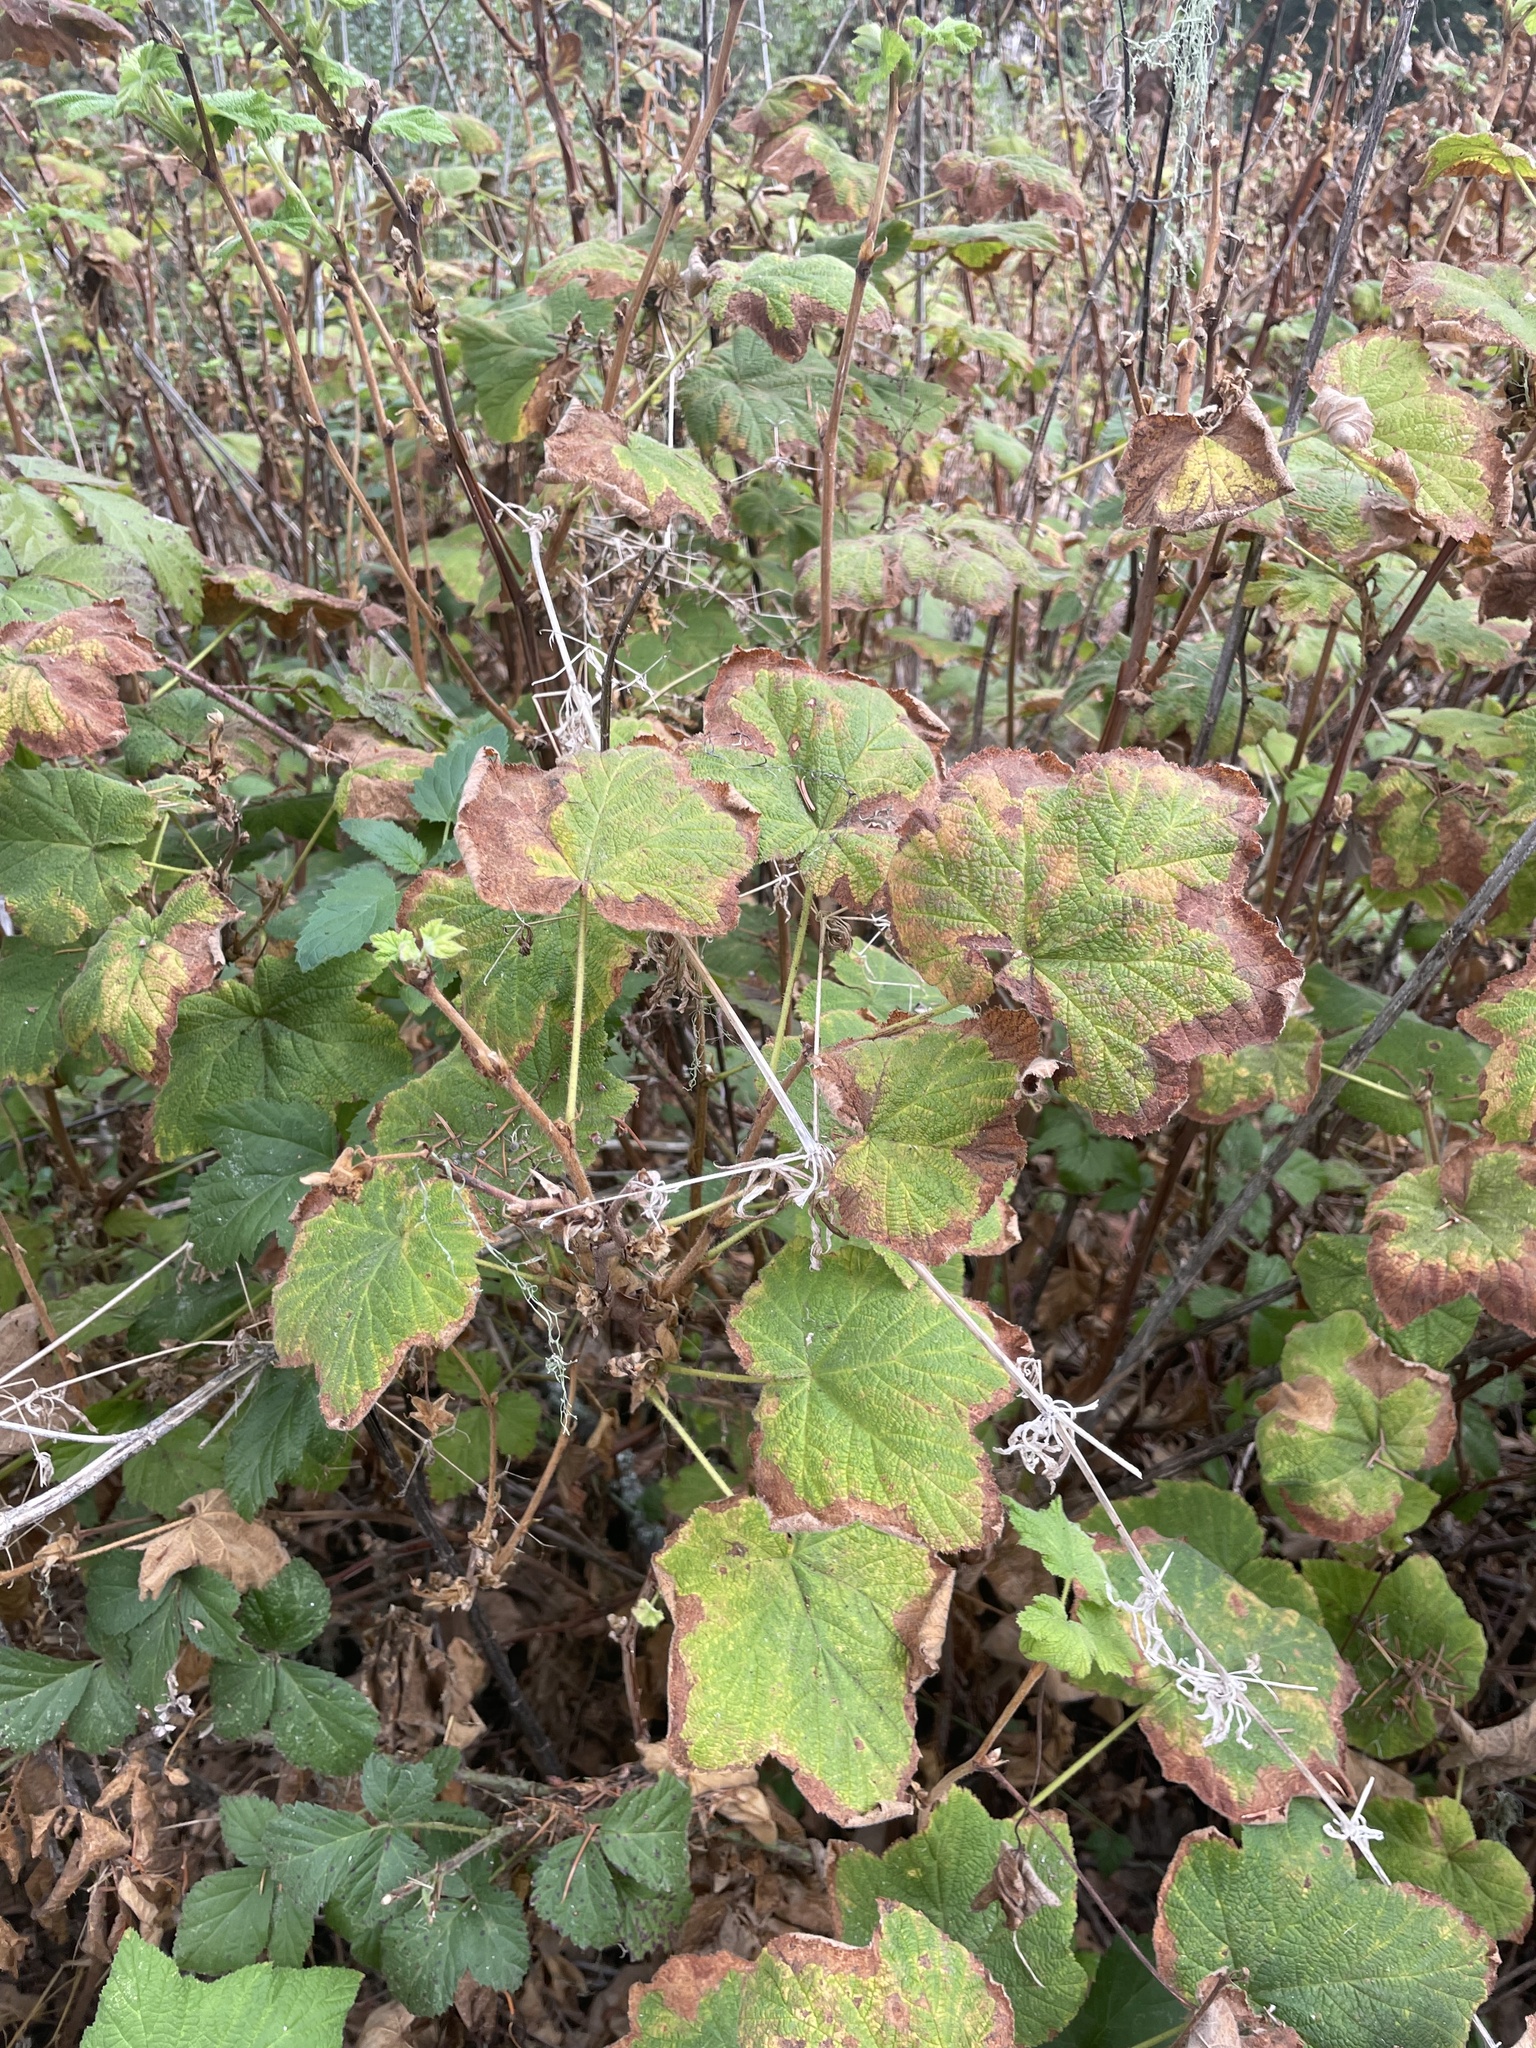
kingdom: Plantae
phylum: Tracheophyta
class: Magnoliopsida
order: Rosales
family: Rosaceae
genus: Rubus
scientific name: Rubus parviflorus
